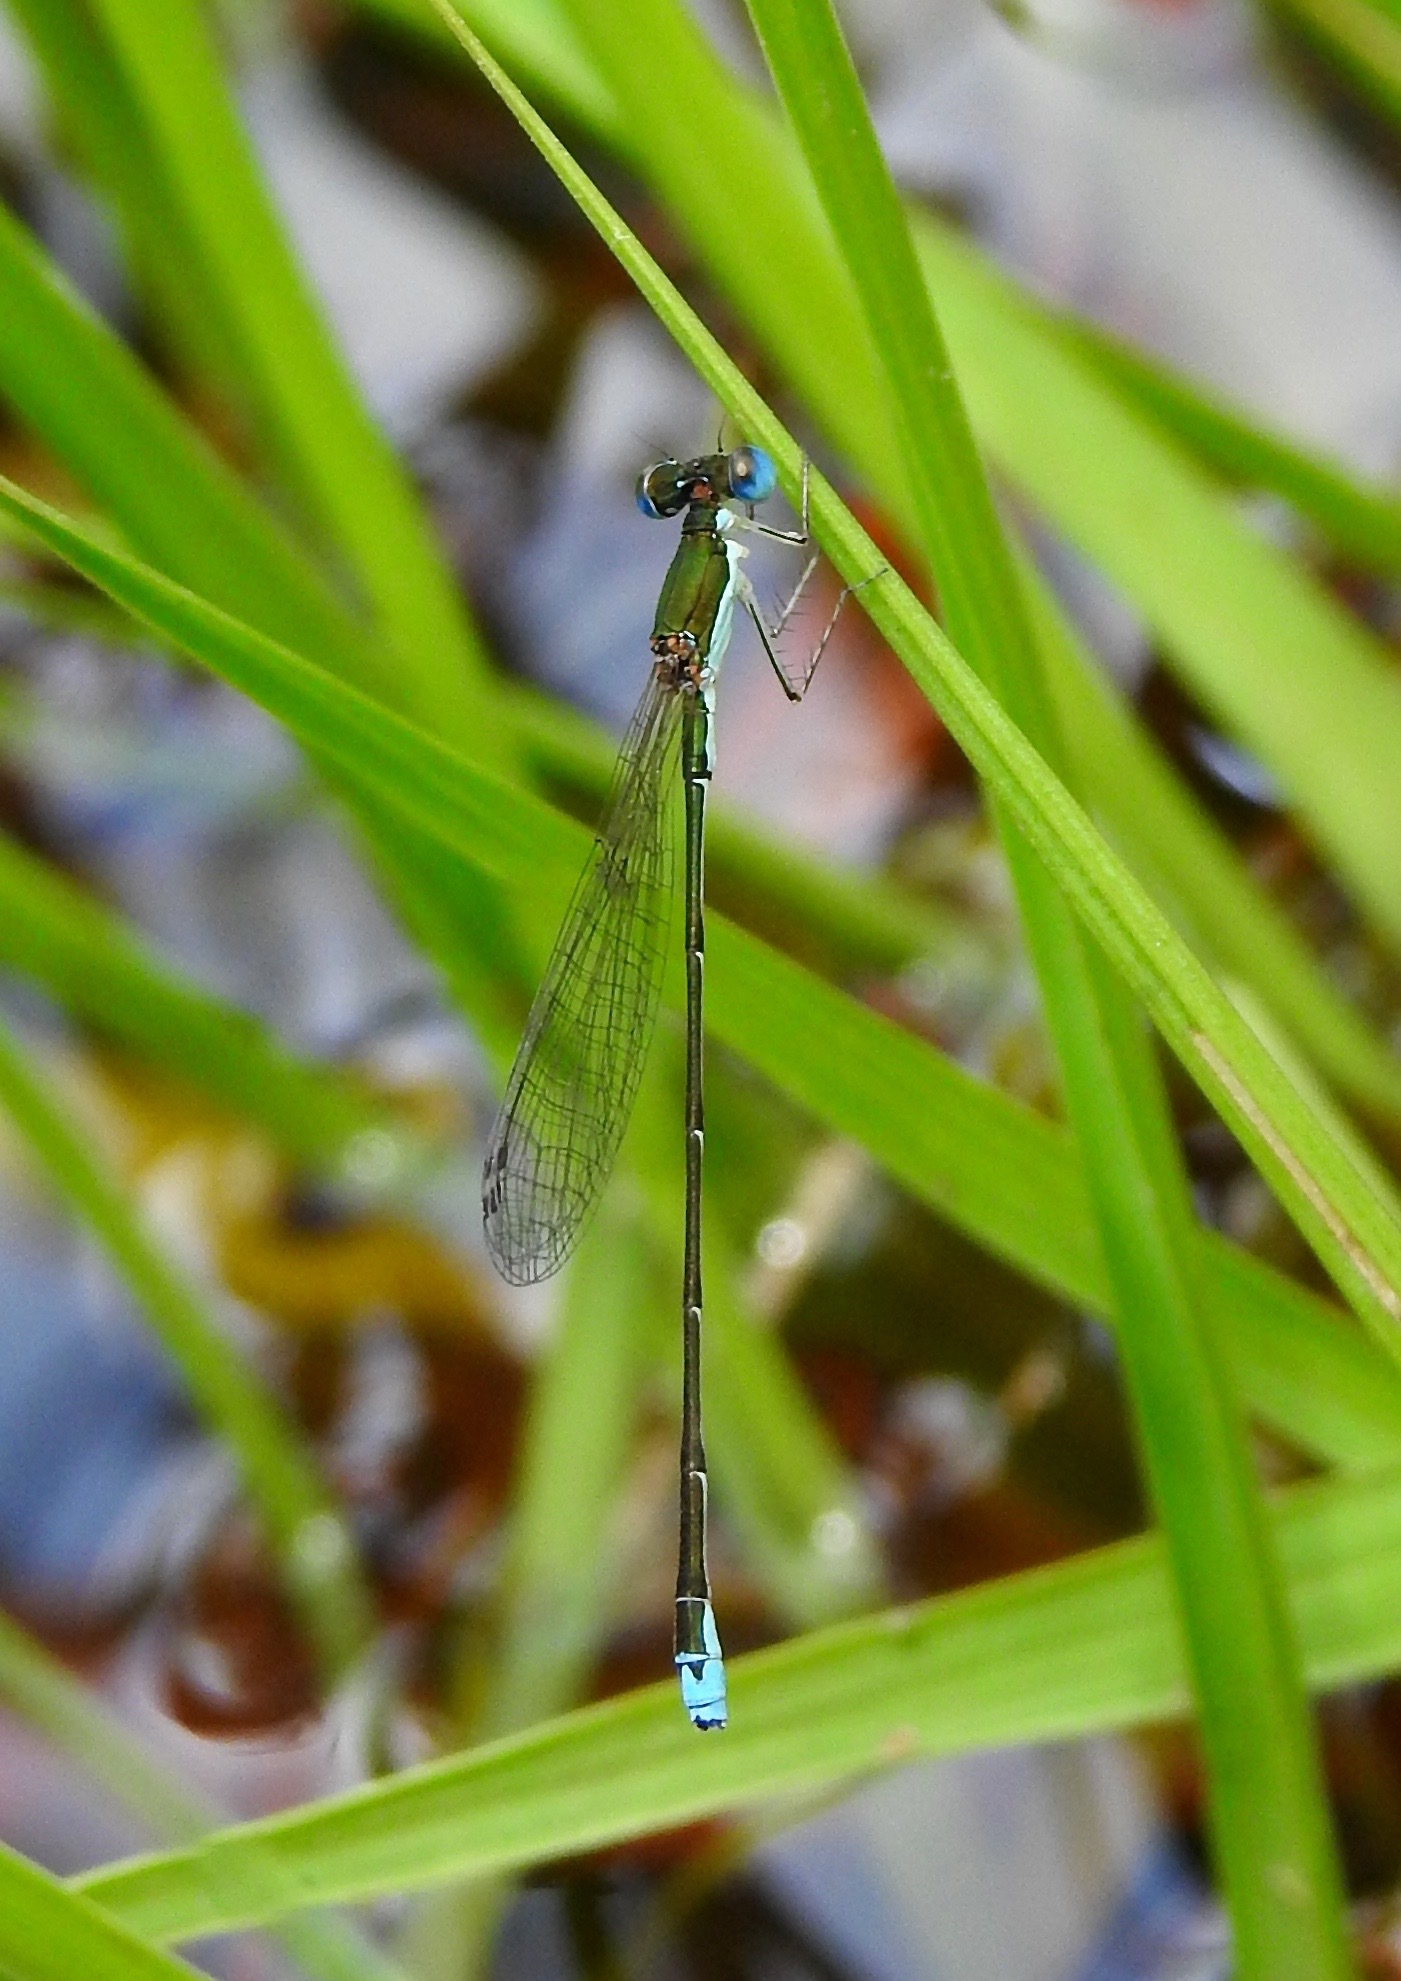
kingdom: Animalia
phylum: Arthropoda
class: Insecta
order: Odonata
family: Coenagrionidae
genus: Nehalennia
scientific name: Nehalennia integricollis
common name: Southern sprite
